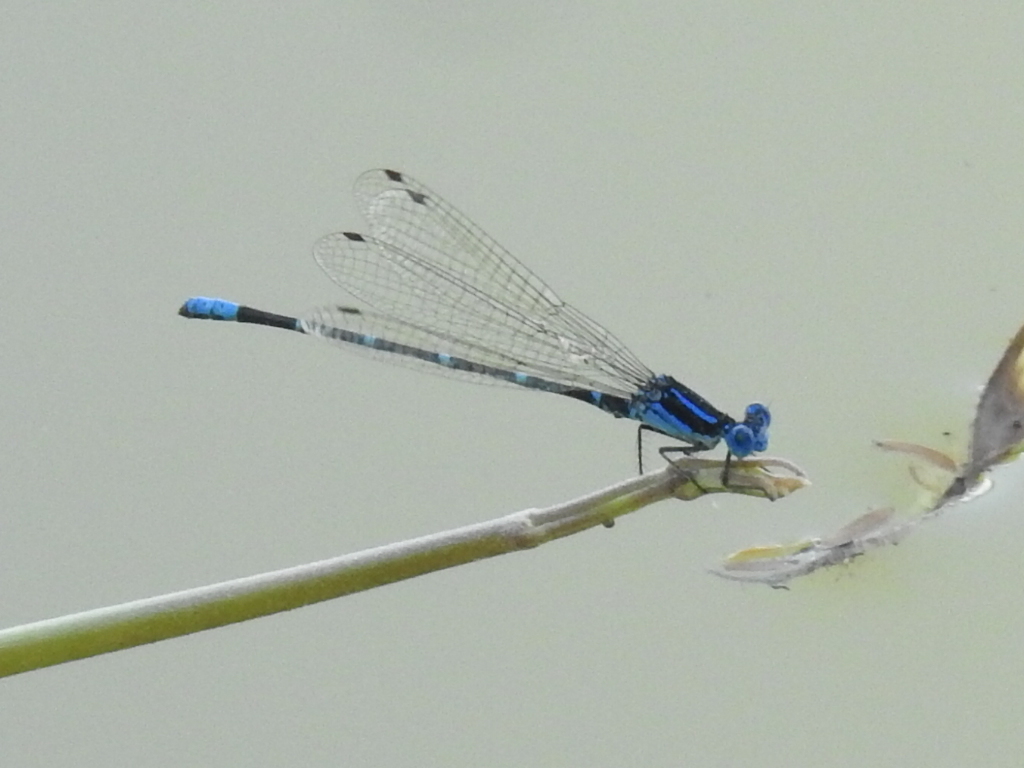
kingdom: Animalia
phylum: Arthropoda
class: Insecta
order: Odonata
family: Coenagrionidae
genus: Argia
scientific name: Argia sedula
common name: Blue-ringed dancer
